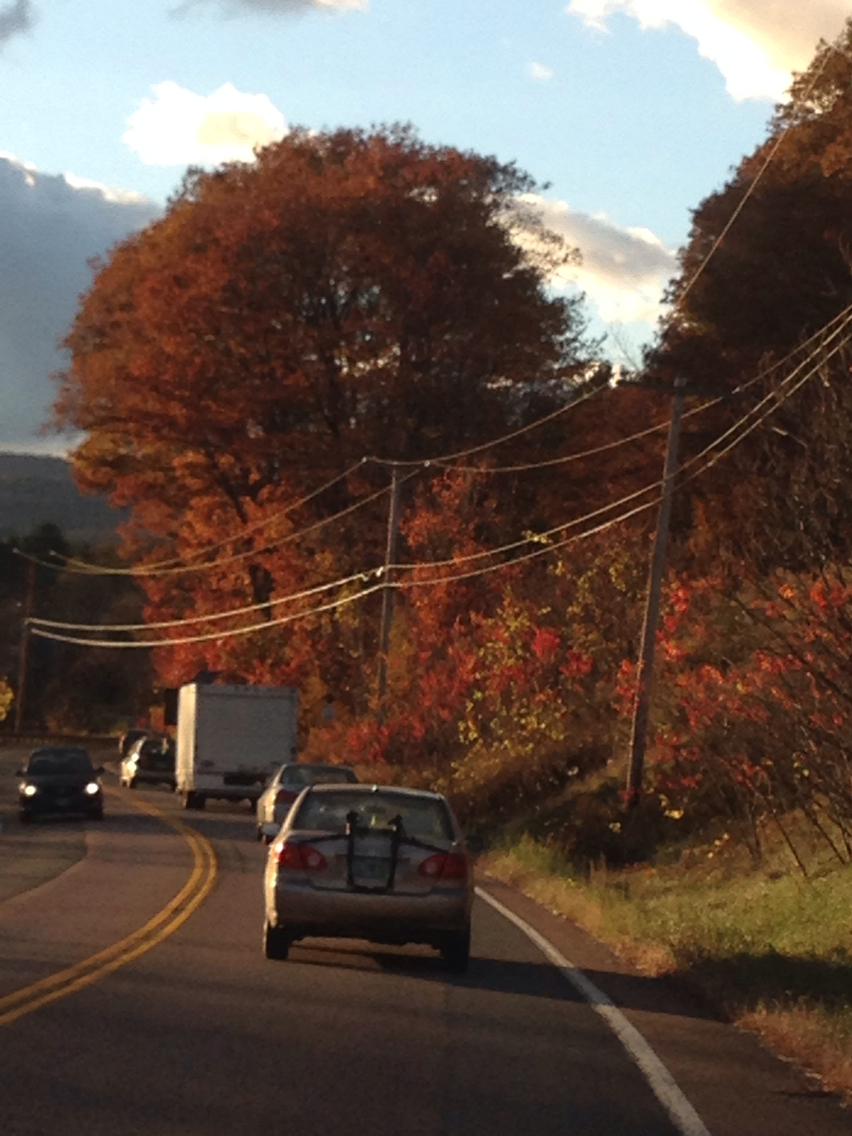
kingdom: Plantae
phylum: Tracheophyta
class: Magnoliopsida
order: Fagales
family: Fagaceae
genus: Quercus
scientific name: Quercus rubra
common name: Red oak
